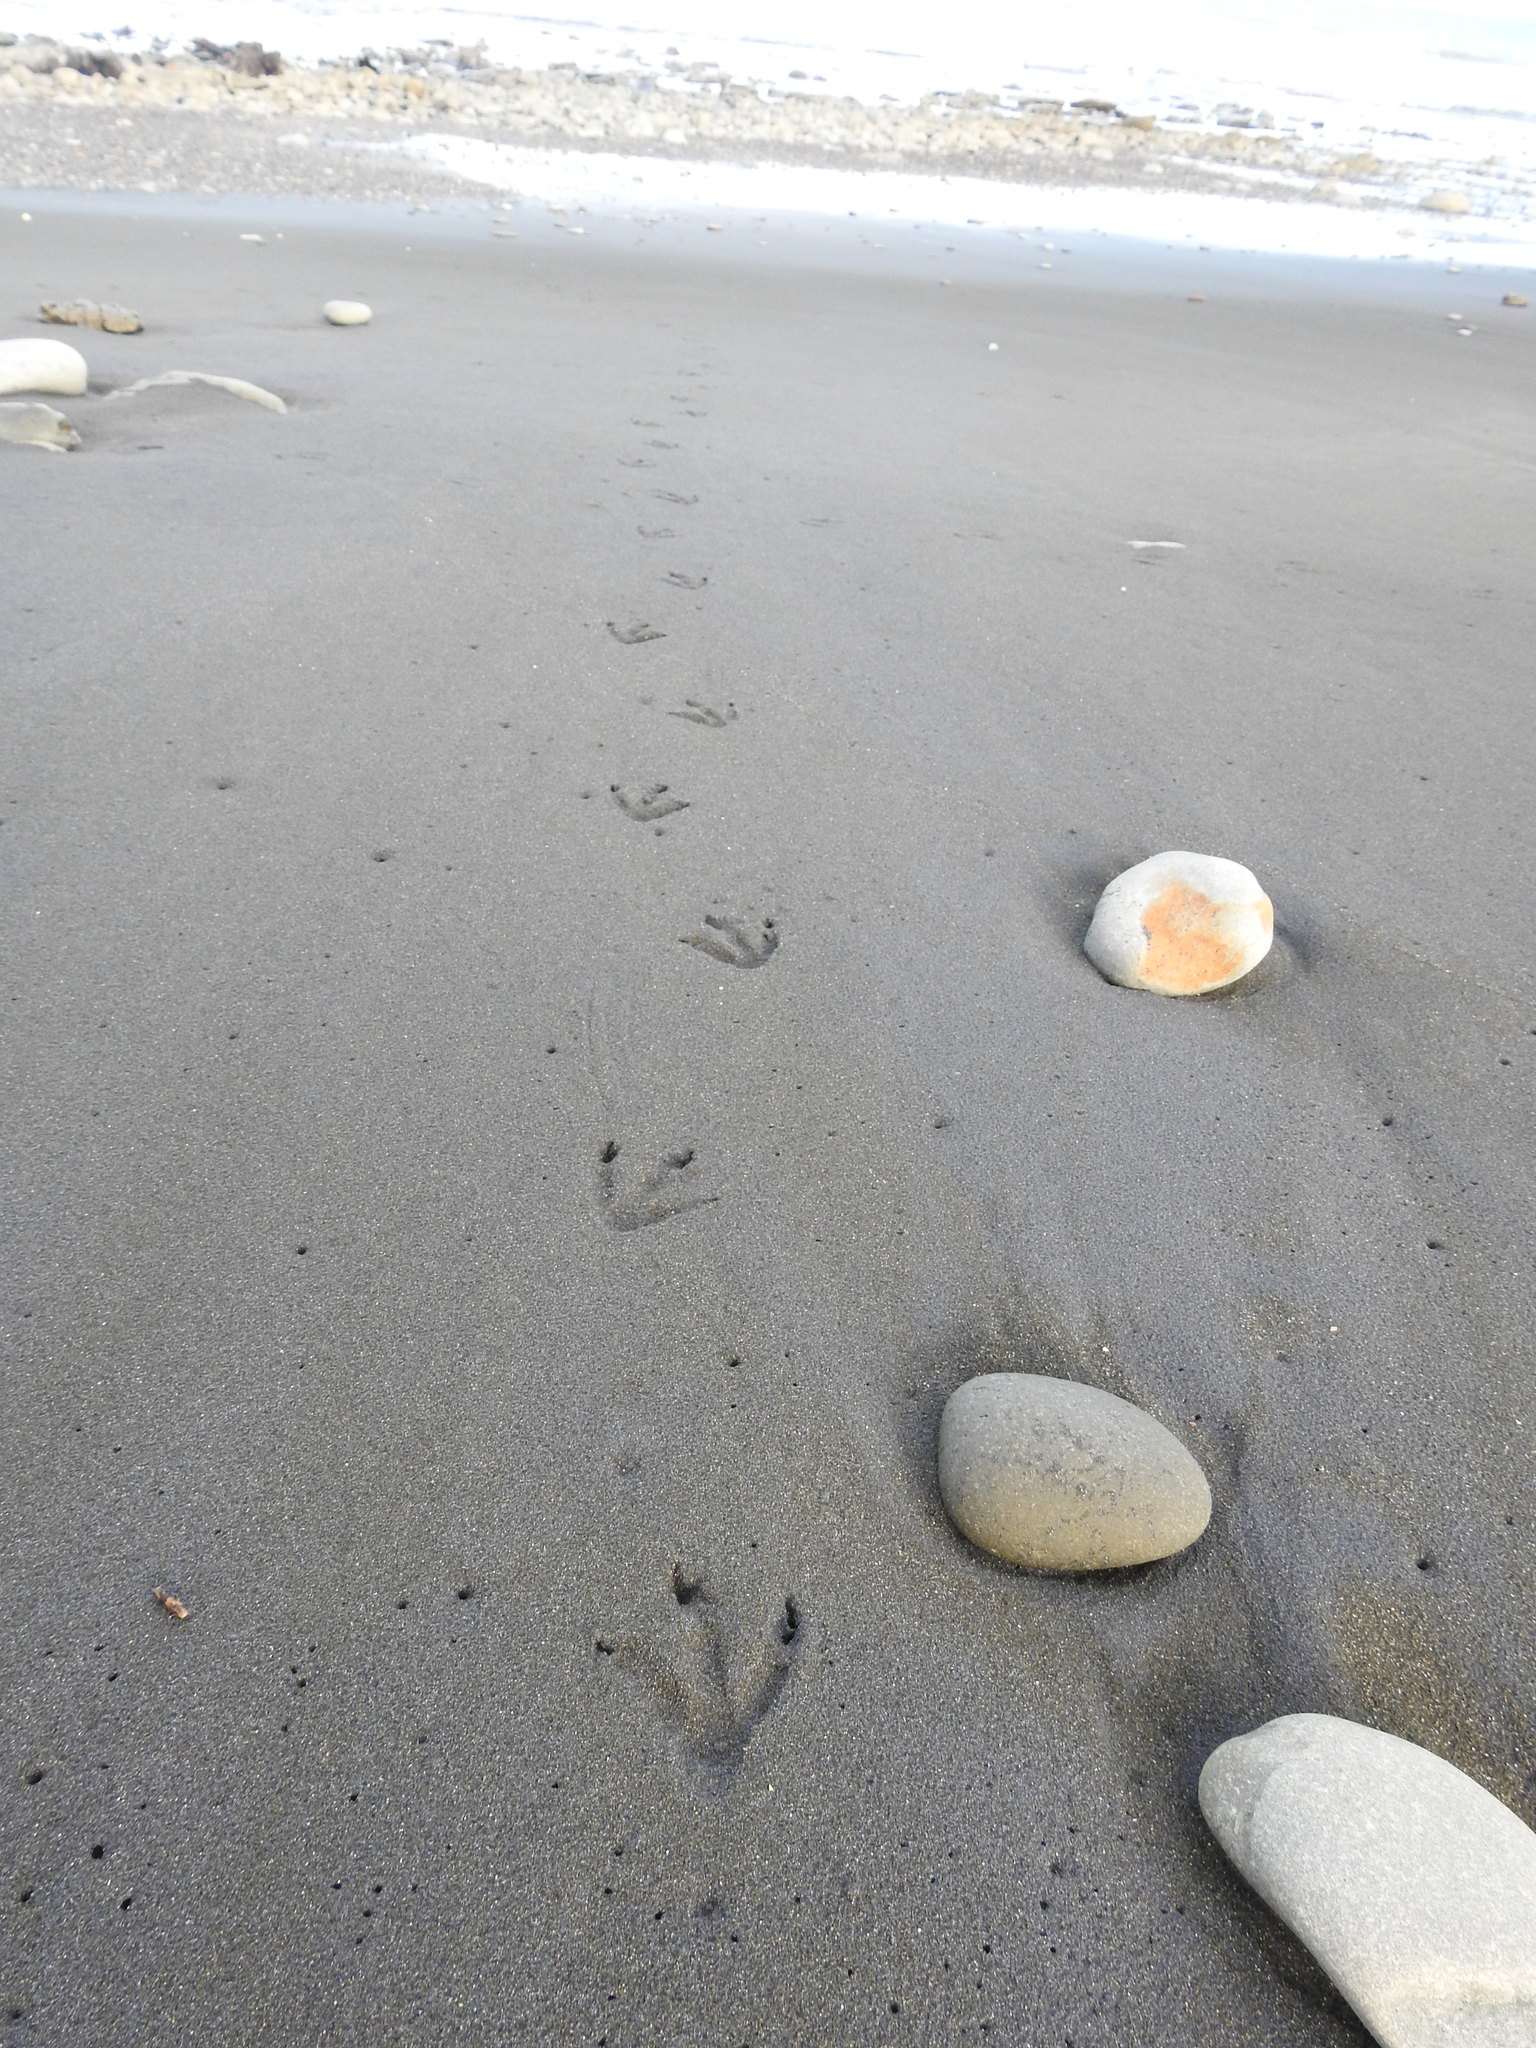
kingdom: Animalia
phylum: Chordata
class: Aves
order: Sphenisciformes
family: Spheniscidae
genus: Eudyptula
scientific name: Eudyptula minor
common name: Little penguin
